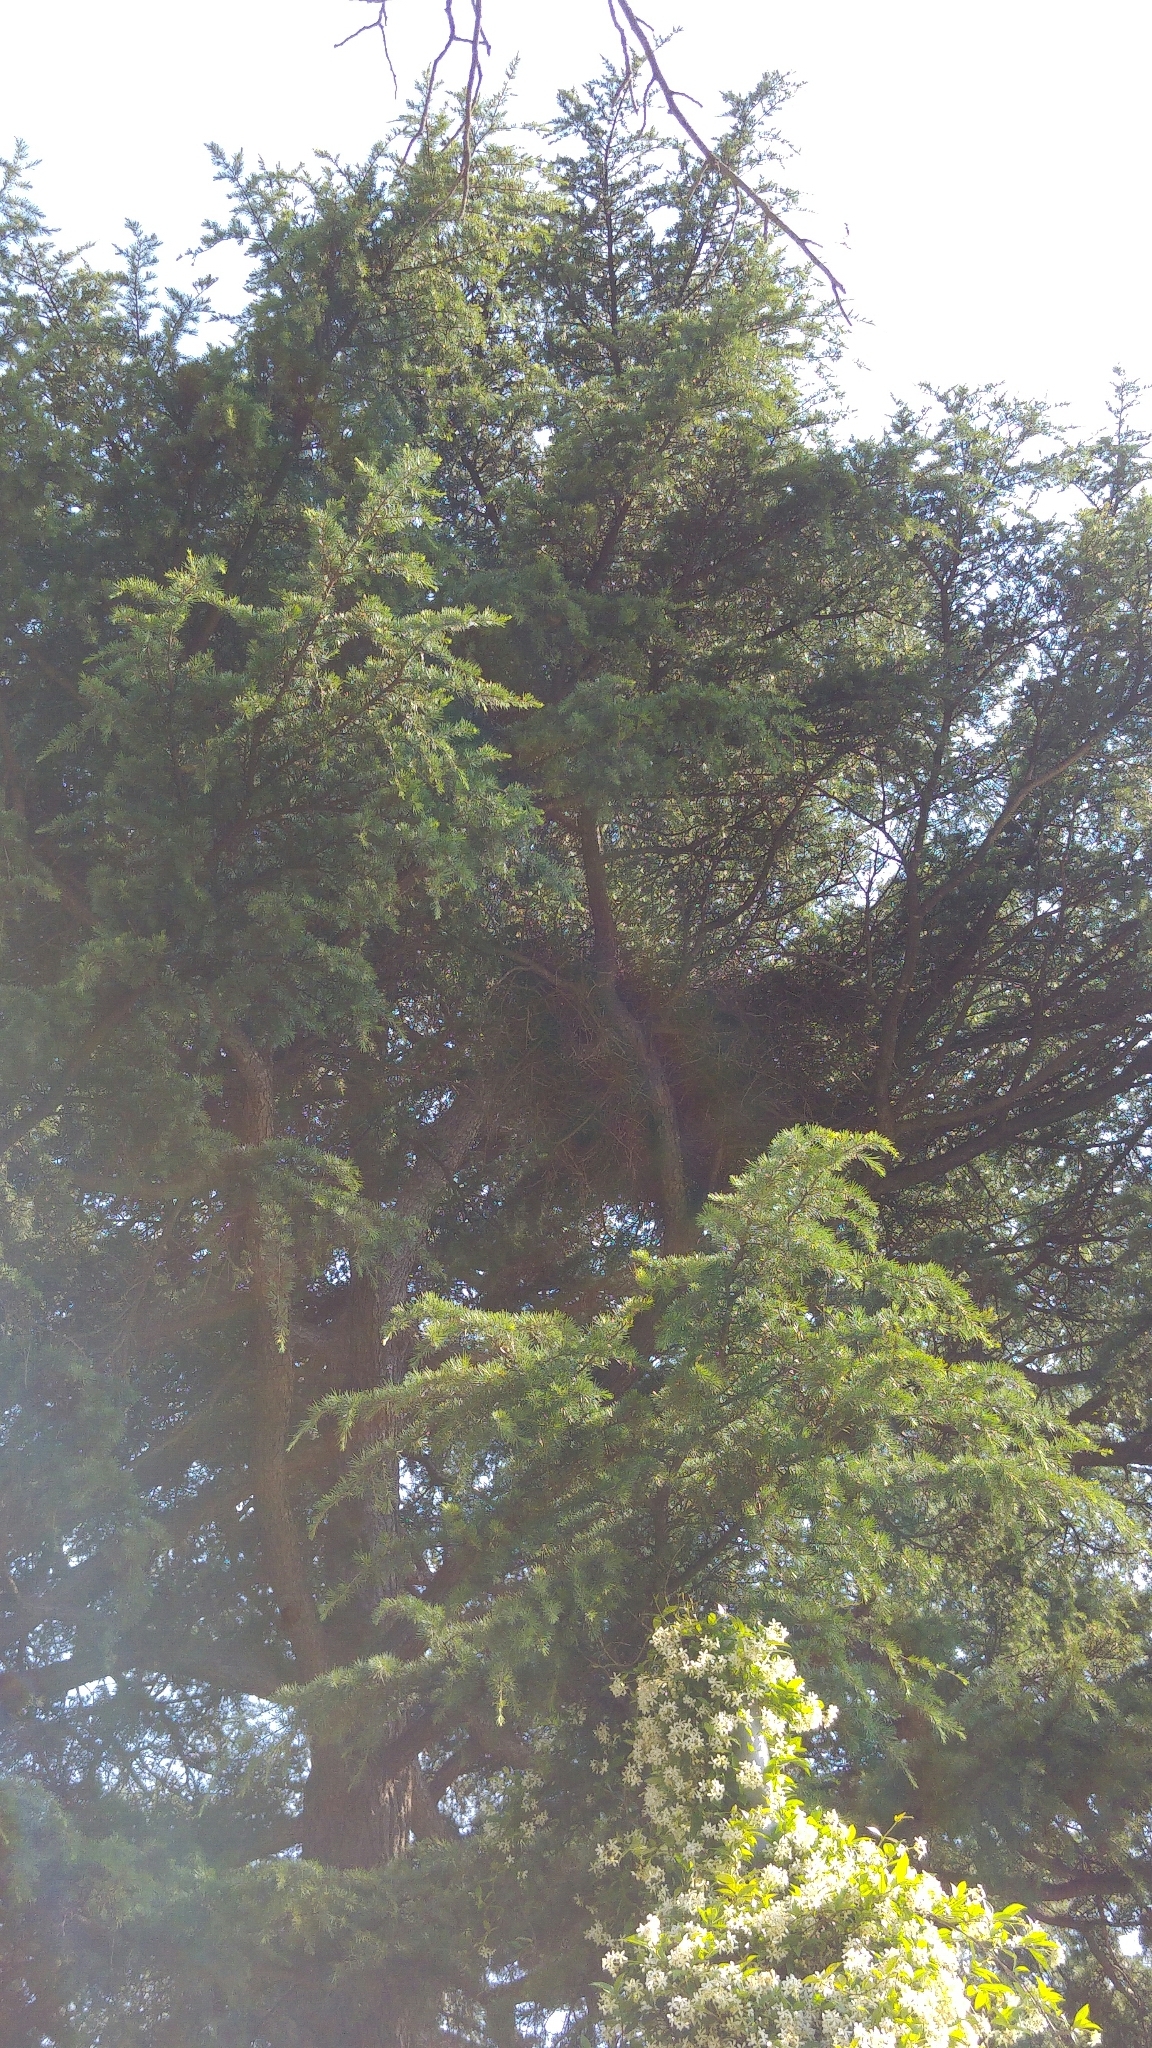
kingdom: Animalia
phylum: Chordata
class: Aves
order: Psittaciformes
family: Psittacidae
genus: Myiopsitta
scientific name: Myiopsitta monachus
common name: Monk parakeet
